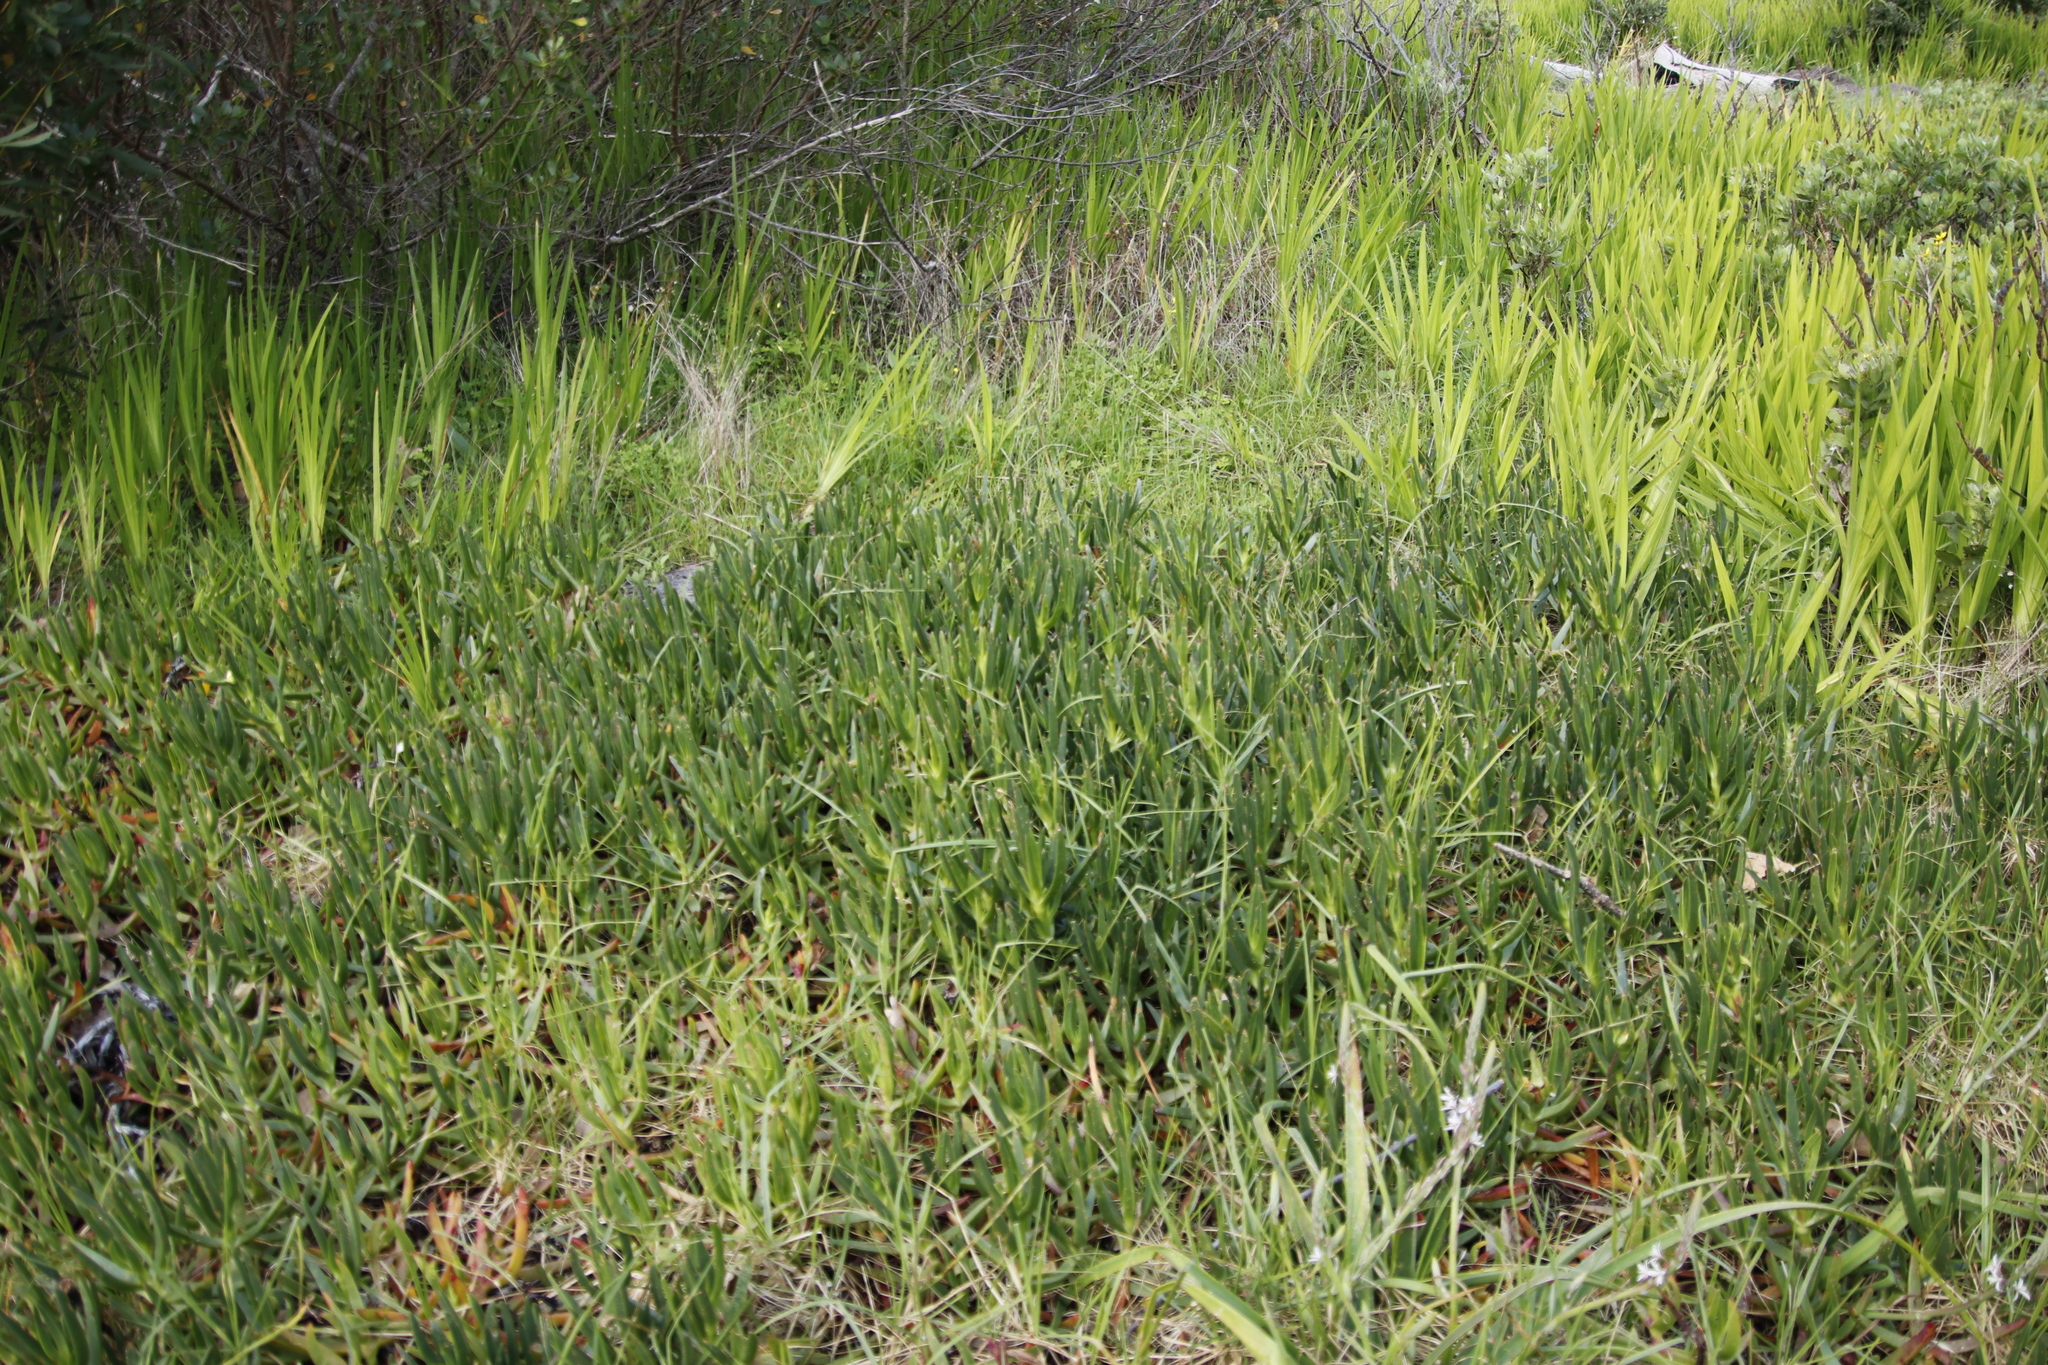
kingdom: Plantae
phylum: Tracheophyta
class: Magnoliopsida
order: Caryophyllales
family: Aizoaceae
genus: Carpobrotus
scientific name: Carpobrotus edulis
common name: Hottentot-fig
